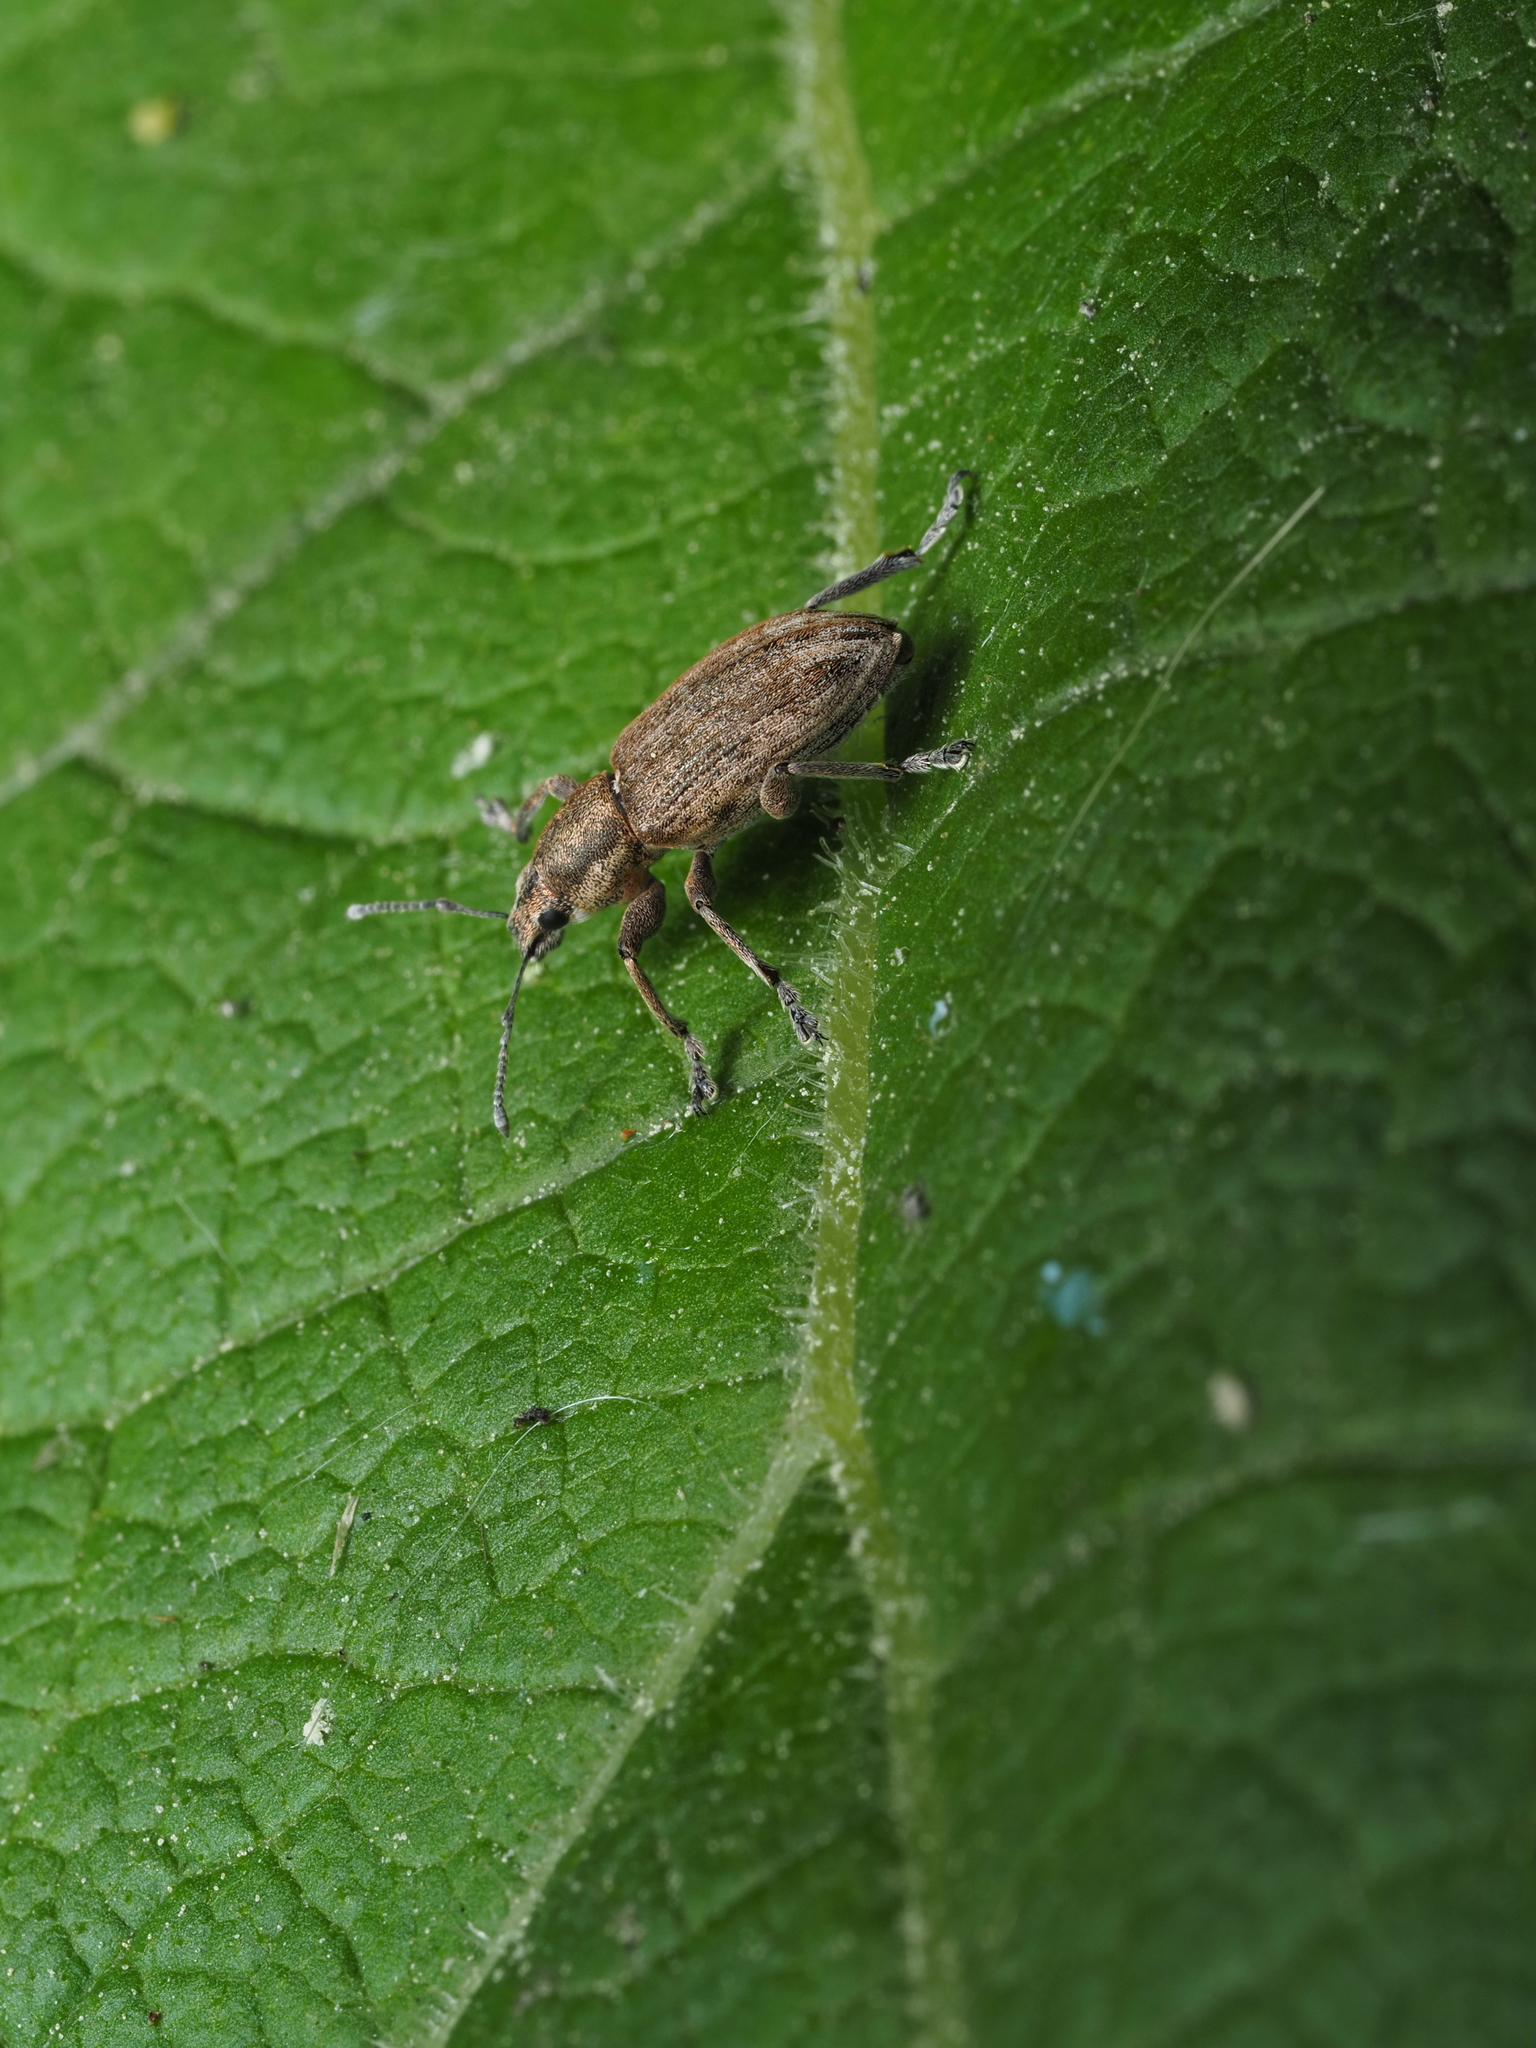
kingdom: Animalia
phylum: Arthropoda
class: Insecta
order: Coleoptera
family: Curculionidae
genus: Tanymecus
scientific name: Tanymecus palliatus
